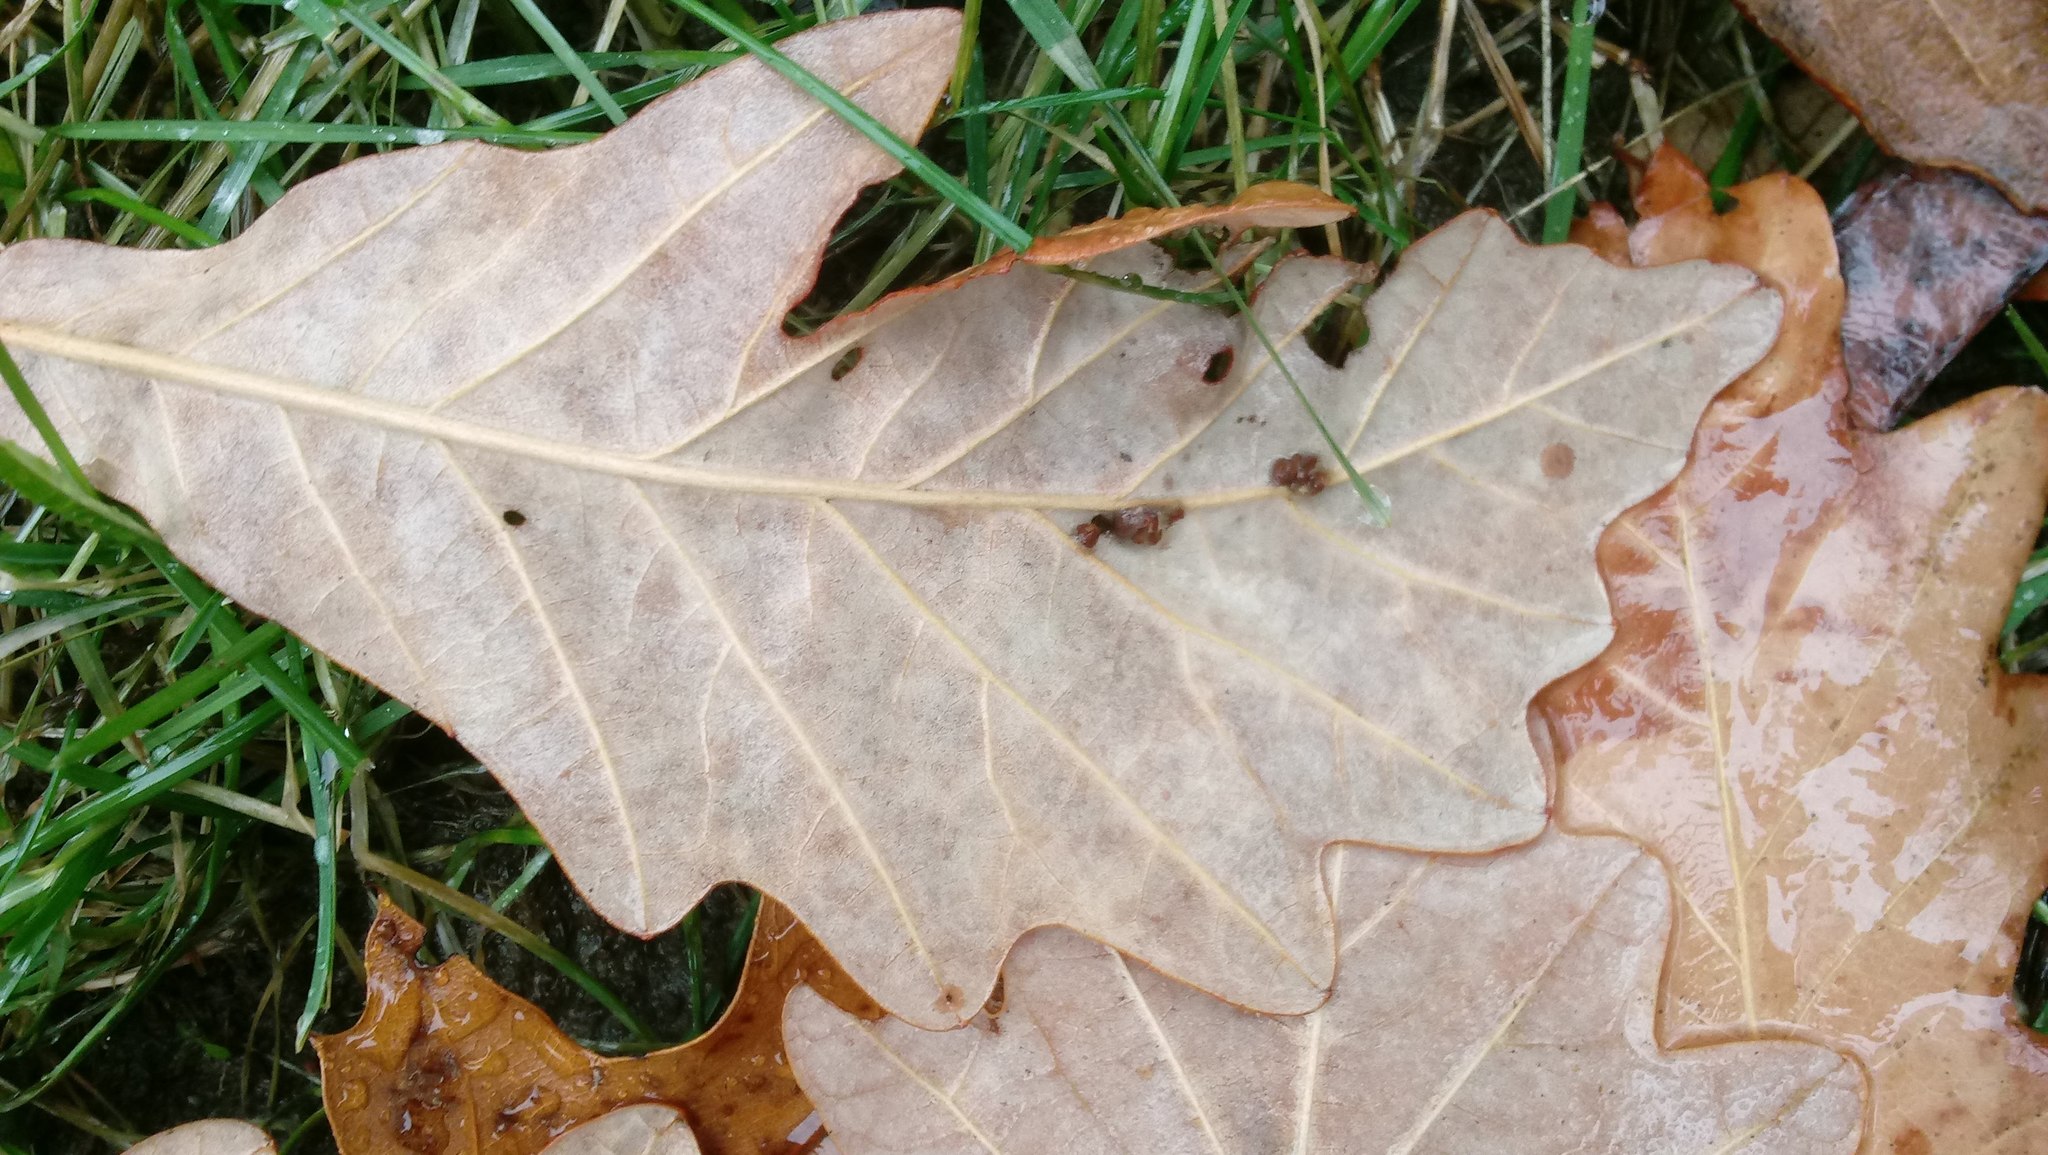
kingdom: Animalia
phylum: Arthropoda
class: Insecta
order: Hymenoptera
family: Cynipidae
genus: Andricus
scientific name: Andricus Druon ignotum
